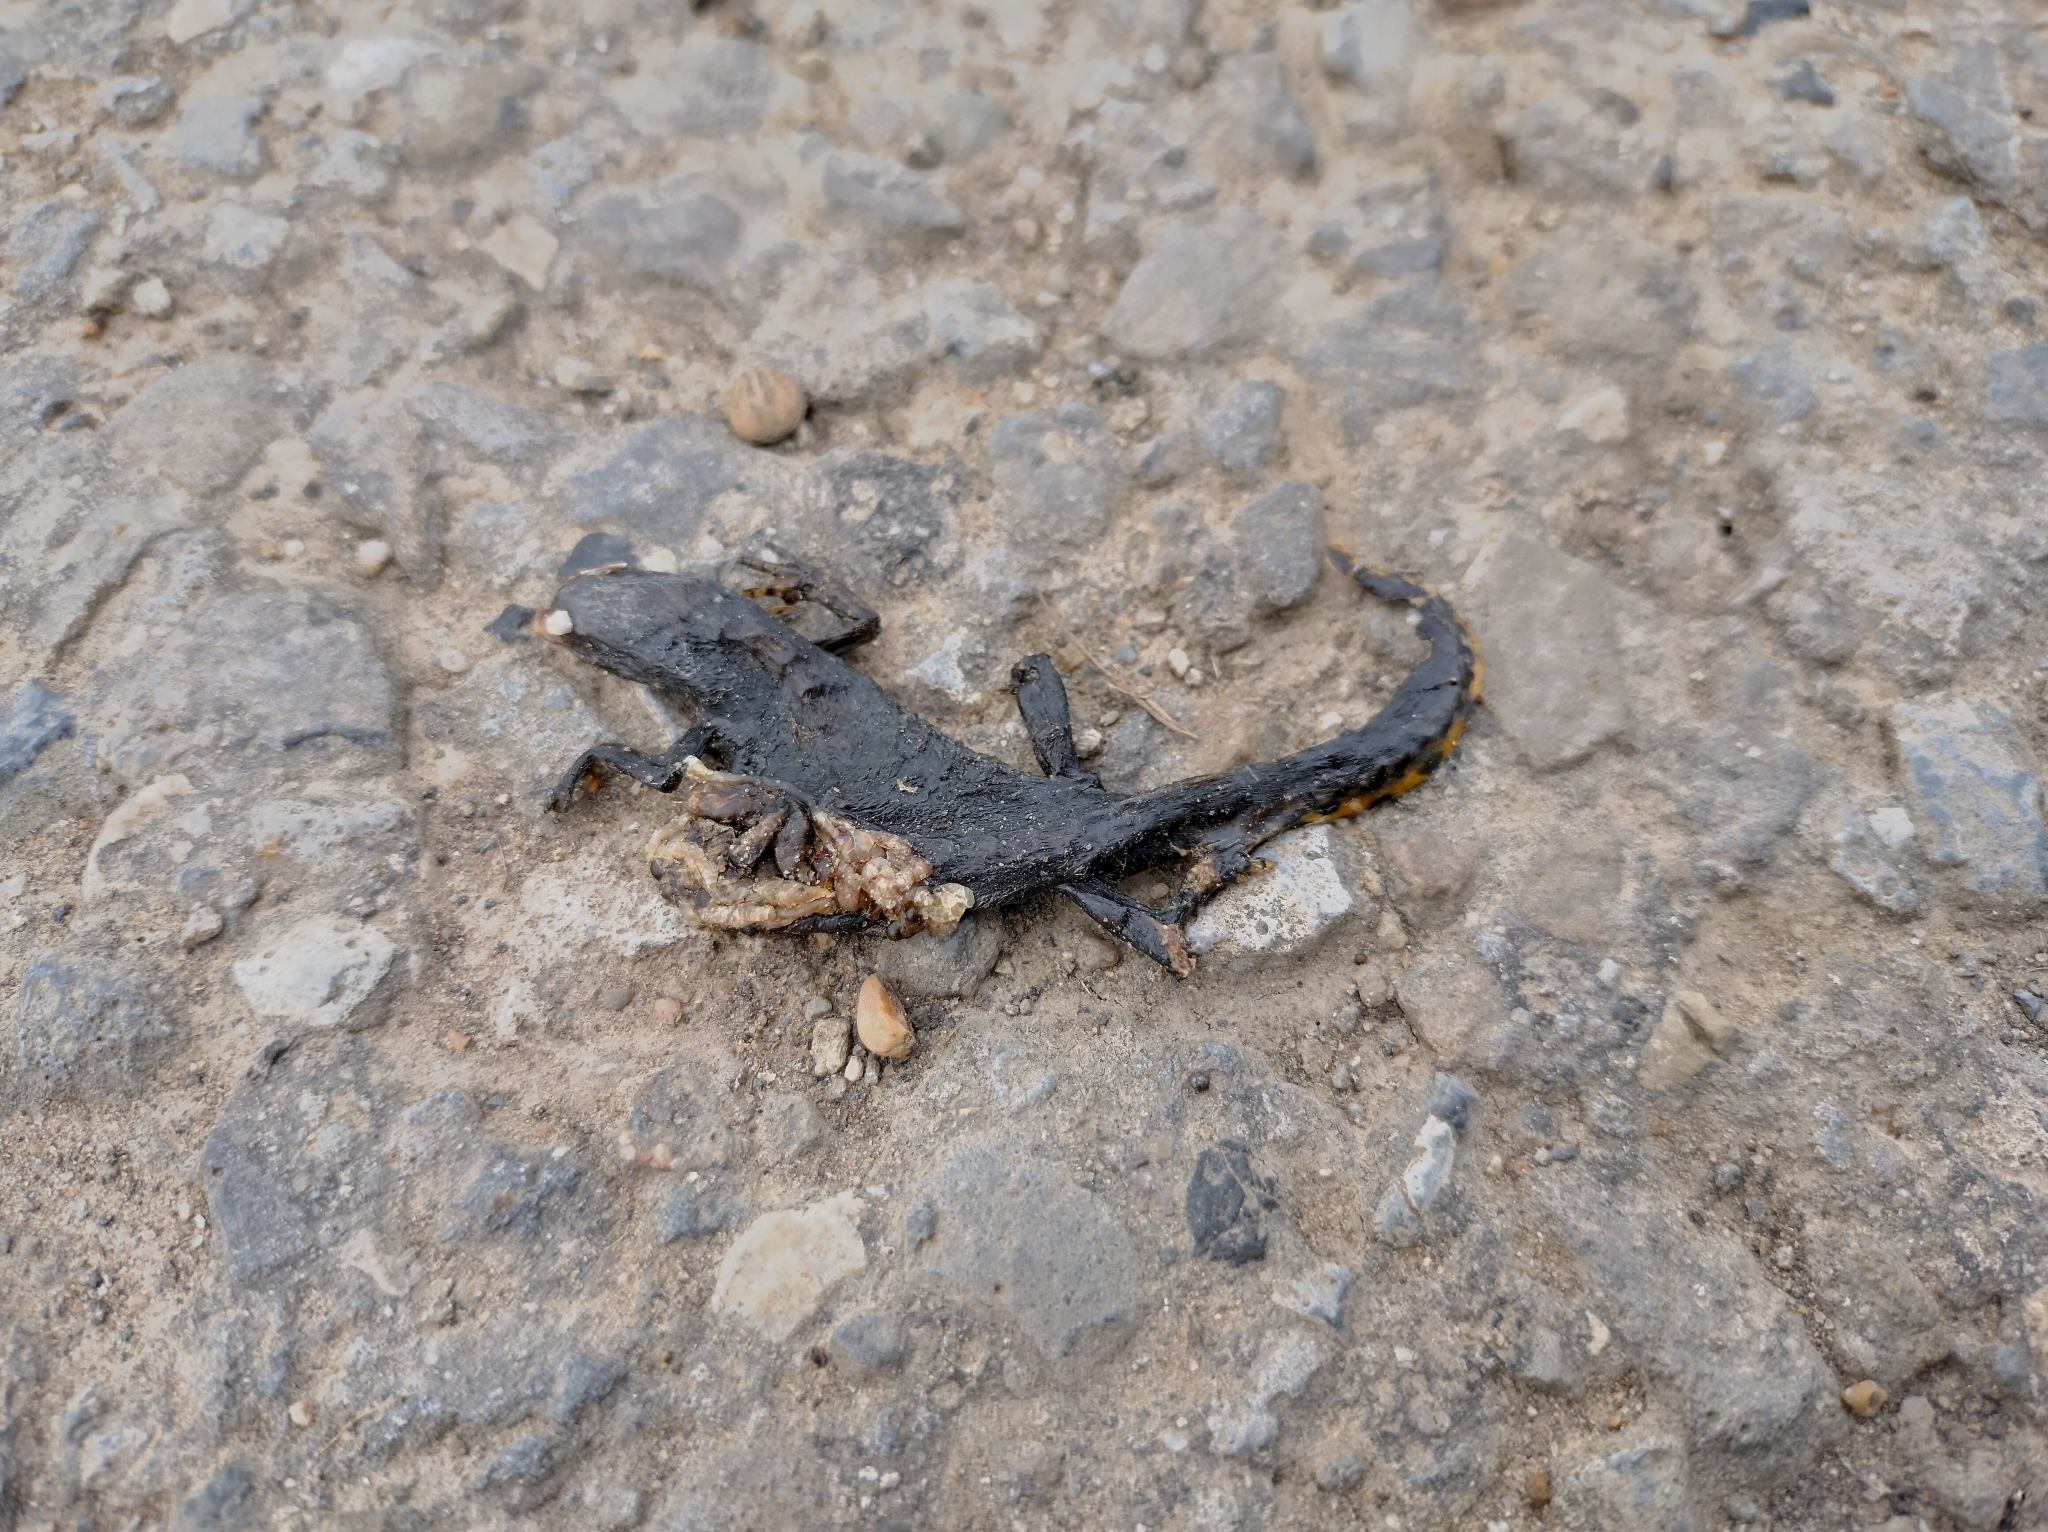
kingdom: Animalia
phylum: Chordata
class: Amphibia
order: Caudata
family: Salamandridae
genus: Ichthyosaura
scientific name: Ichthyosaura alpestris
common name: Alpine newt
